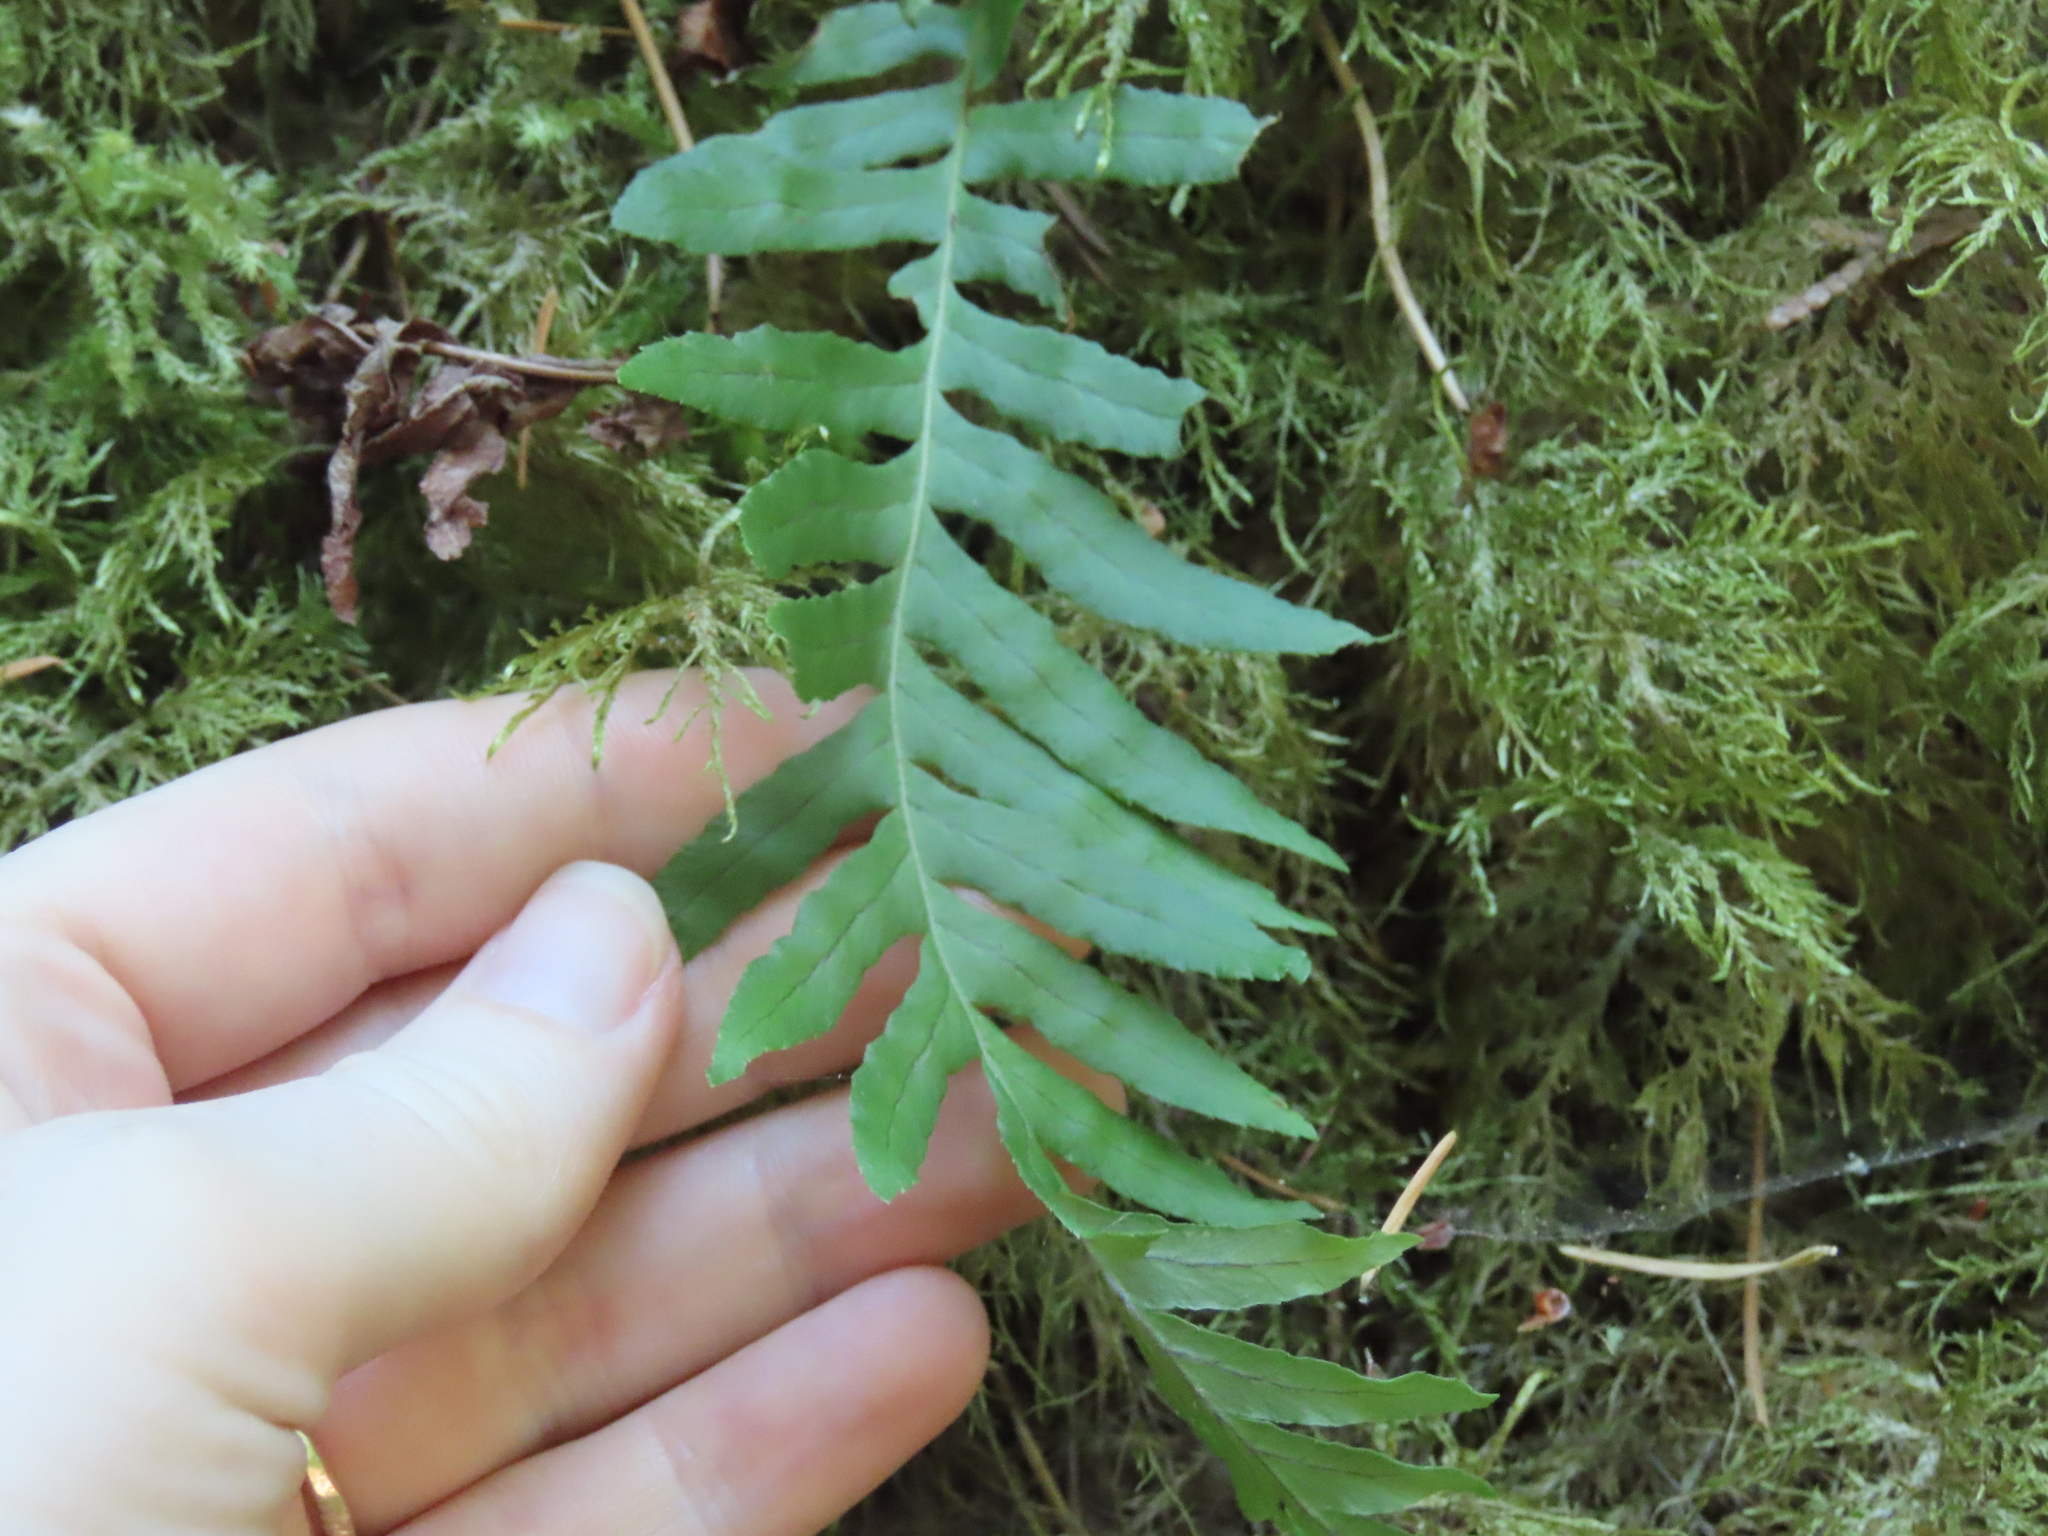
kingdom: Plantae
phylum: Tracheophyta
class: Polypodiopsida
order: Polypodiales
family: Polypodiaceae
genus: Polypodium
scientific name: Polypodium glycyrrhiza
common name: Licorice fern
